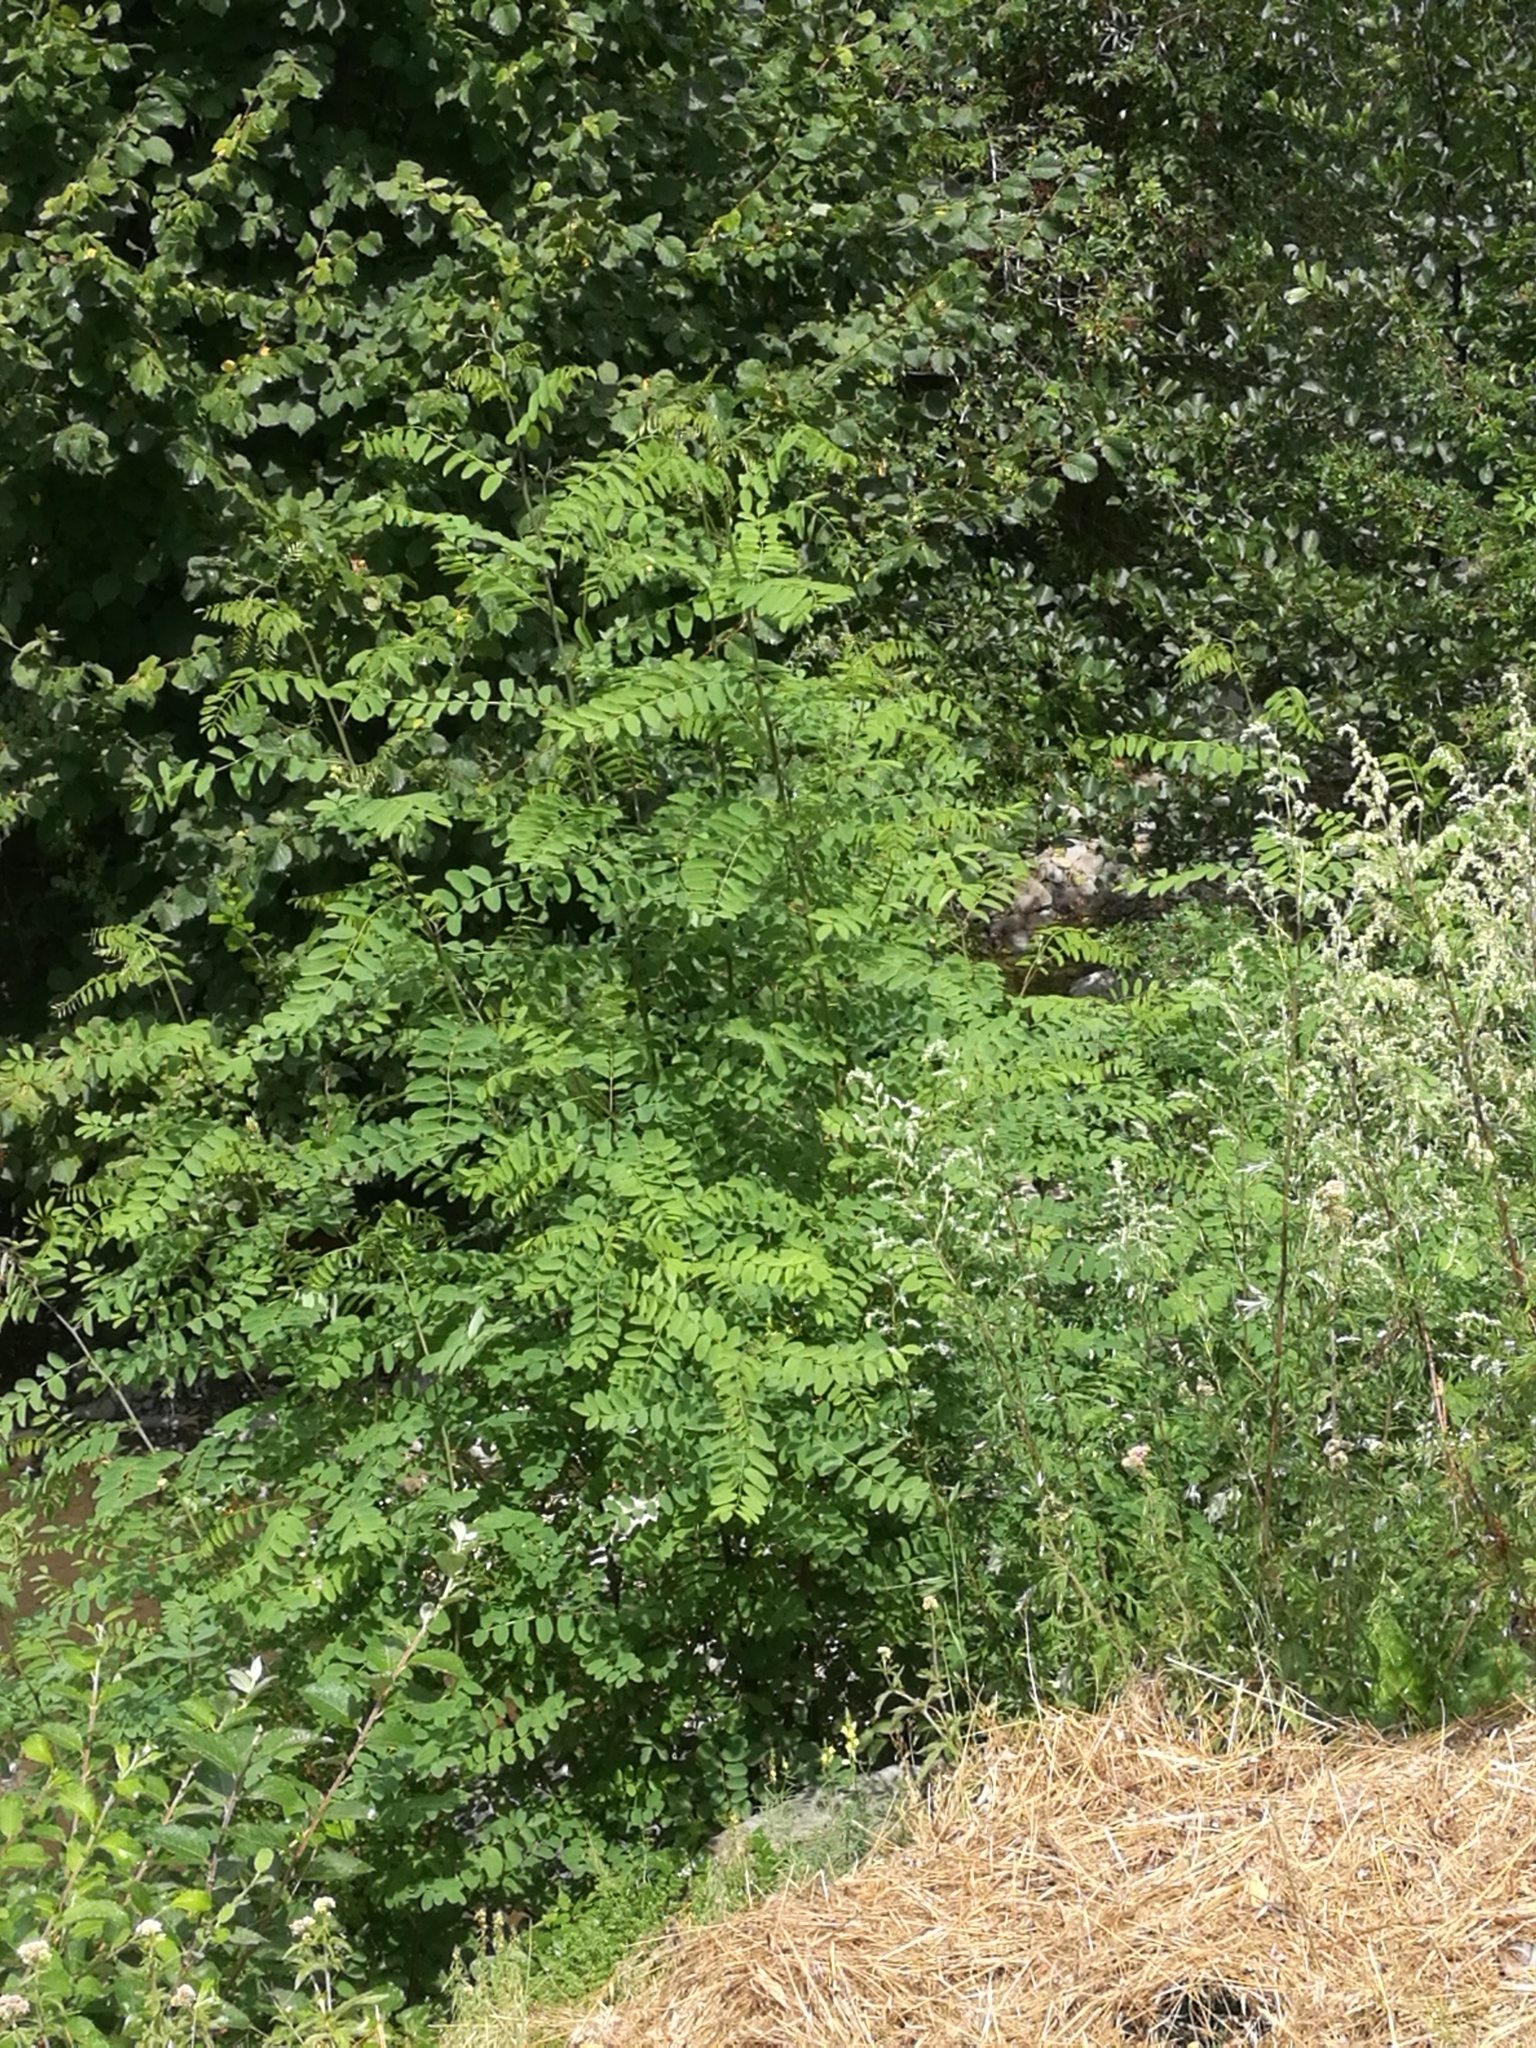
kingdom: Plantae
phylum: Tracheophyta
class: Magnoliopsida
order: Fabales
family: Fabaceae
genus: Robinia
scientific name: Robinia pseudoacacia
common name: Black locust
